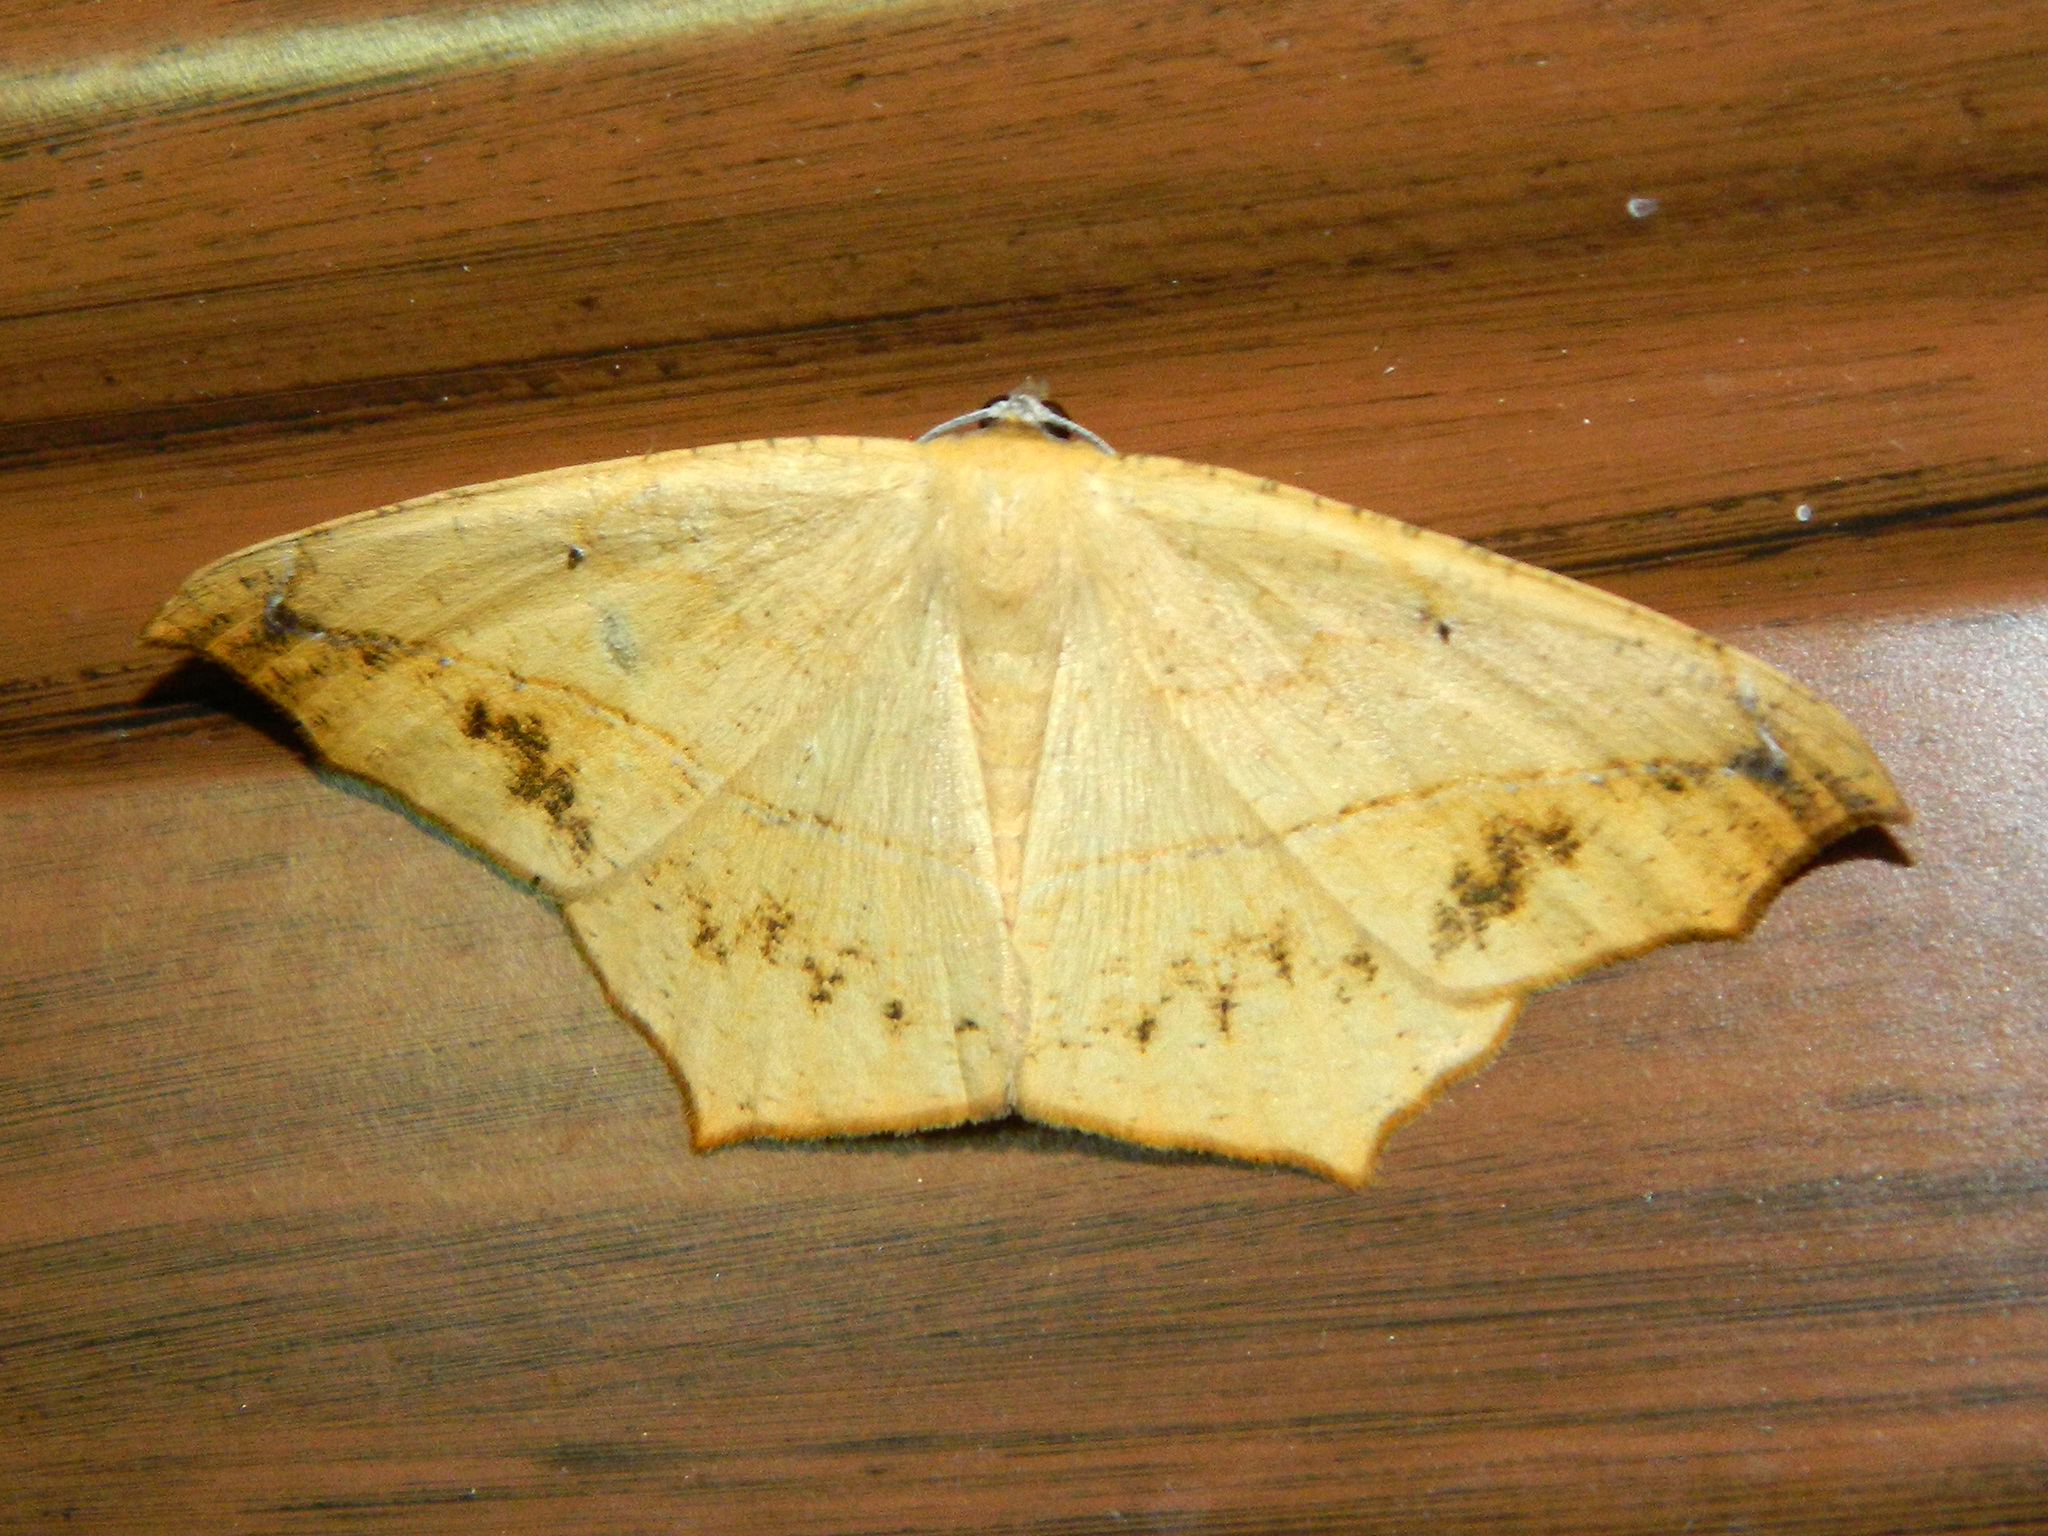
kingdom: Animalia
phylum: Arthropoda
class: Insecta
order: Lepidoptera
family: Geometridae
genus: Prochoerodes
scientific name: Prochoerodes lineola
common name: Large maple spanworm
